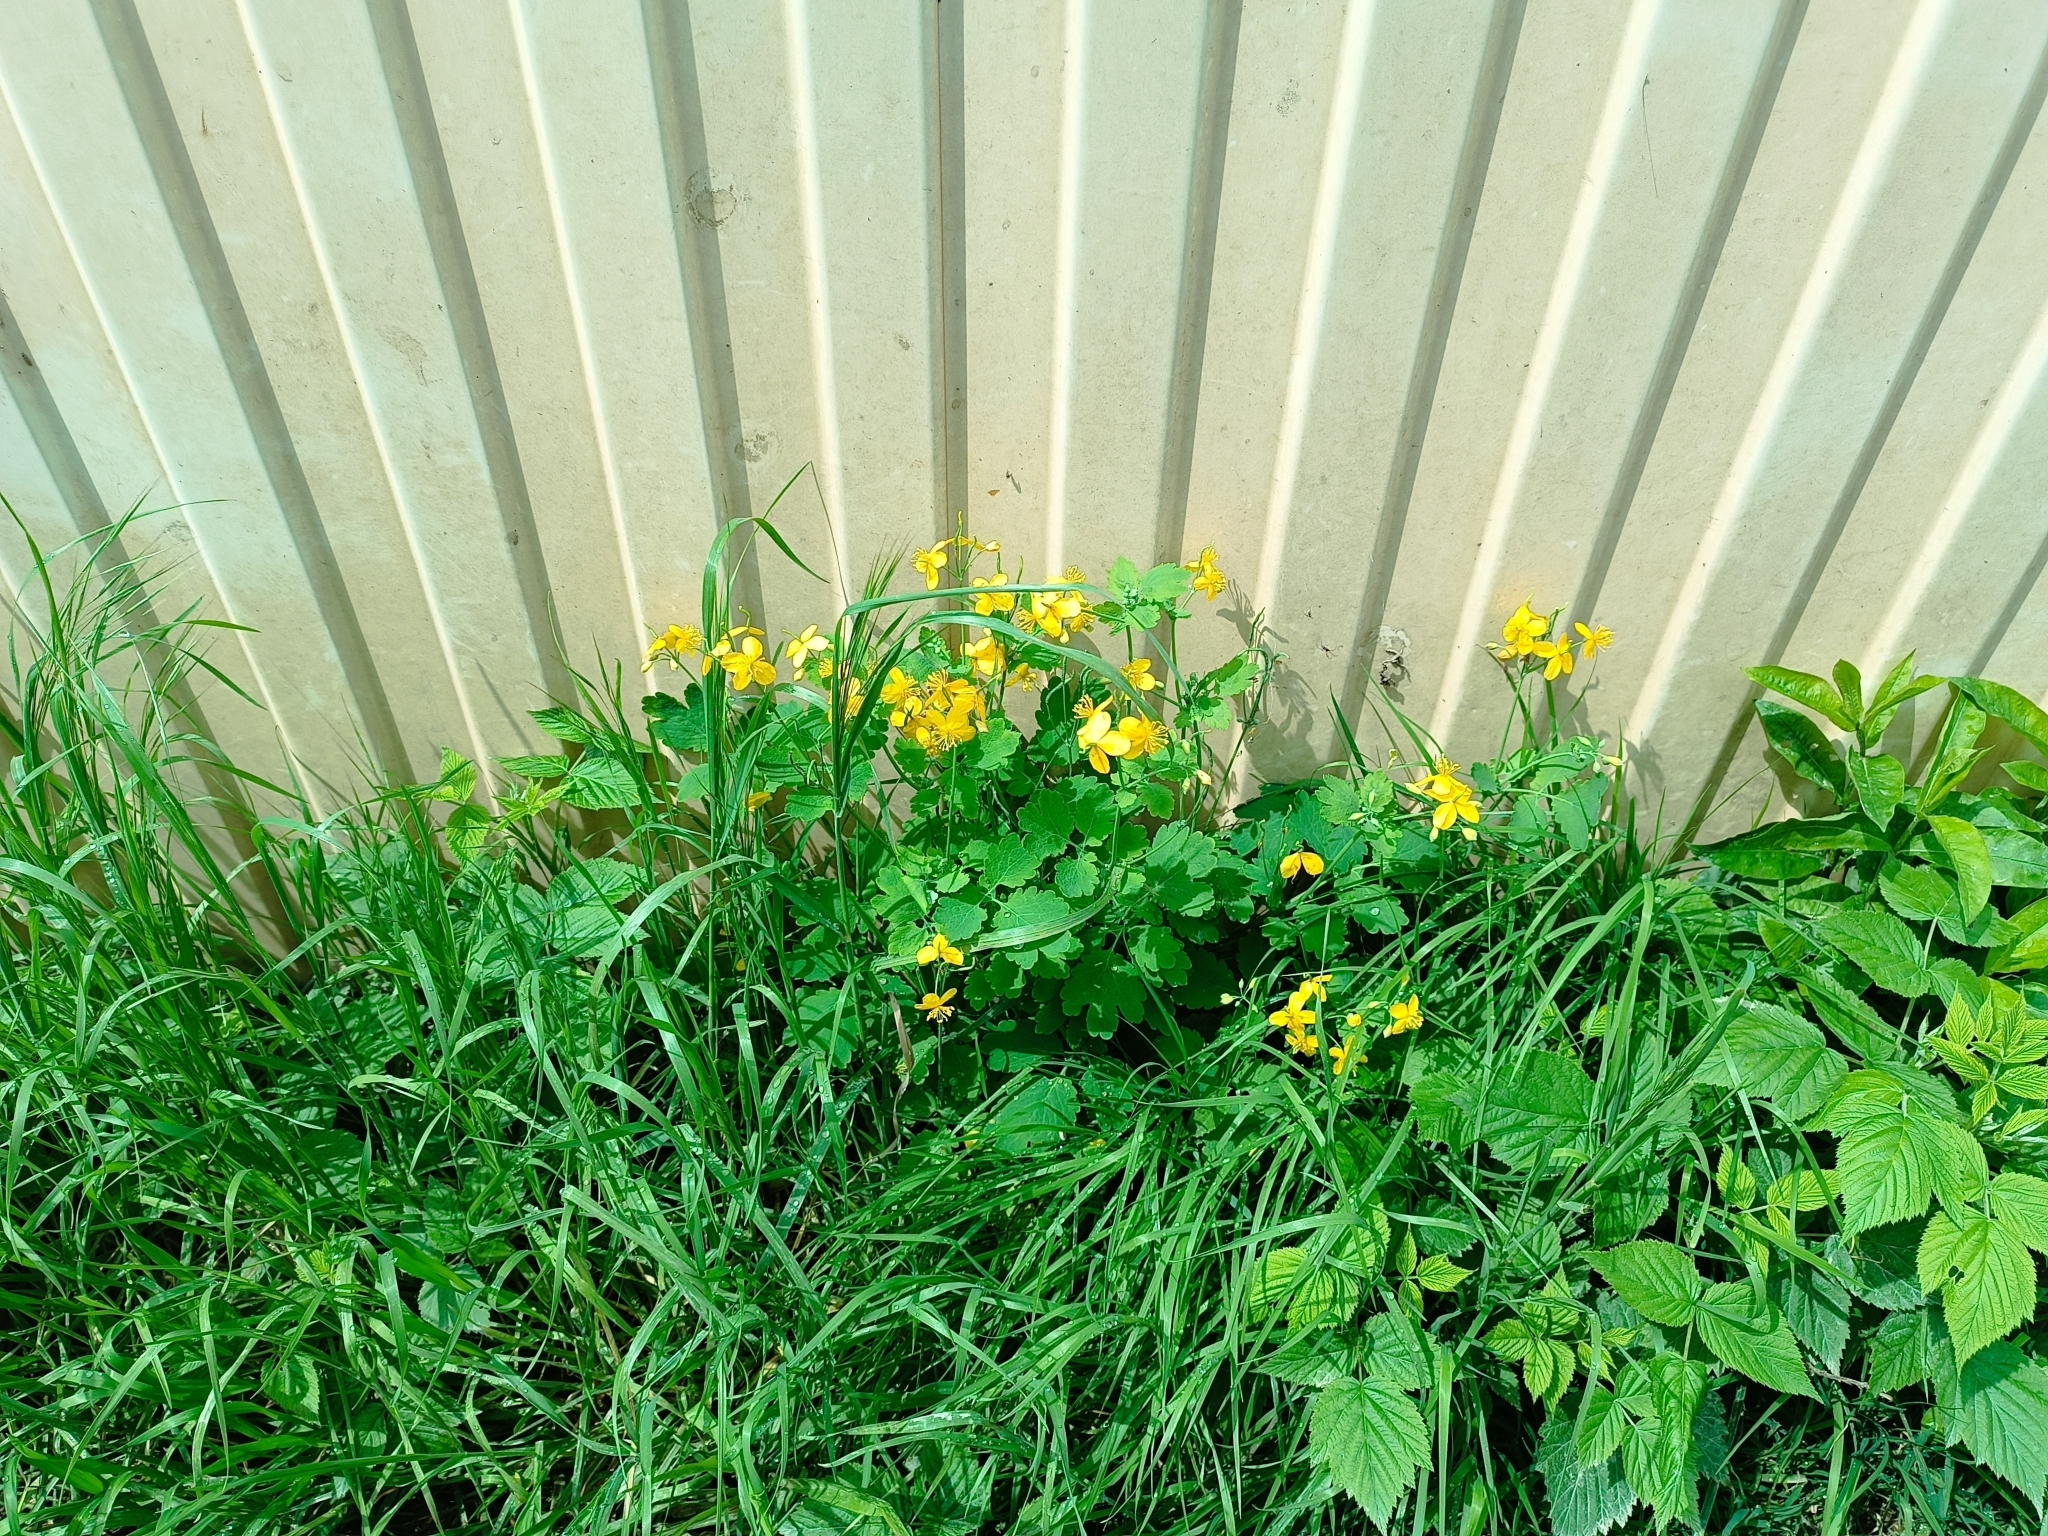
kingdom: Plantae
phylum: Tracheophyta
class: Magnoliopsida
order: Ranunculales
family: Papaveraceae
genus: Chelidonium
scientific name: Chelidonium majus
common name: Greater celandine
